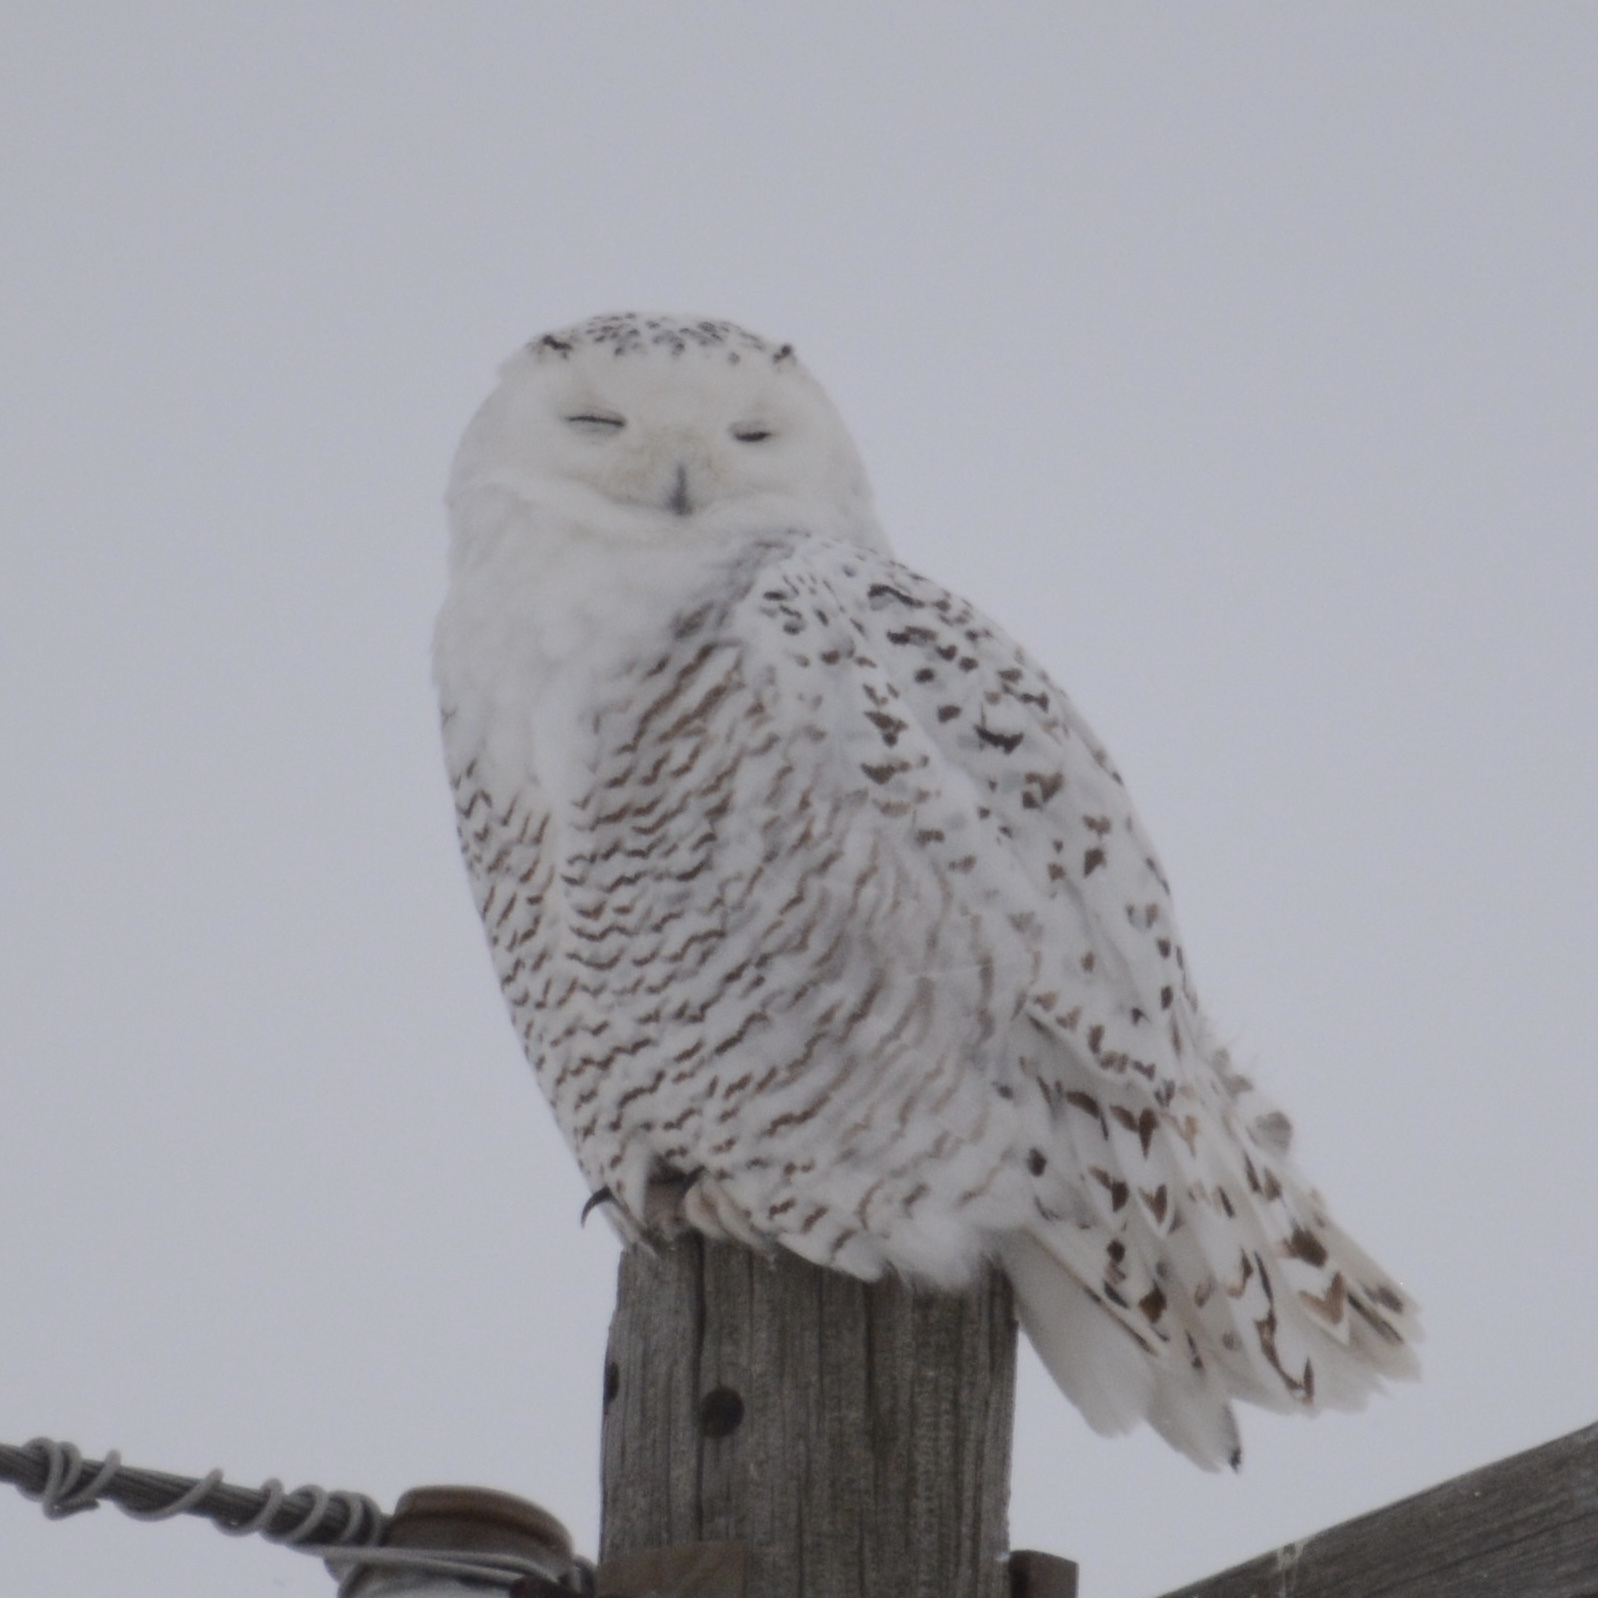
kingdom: Animalia
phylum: Chordata
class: Aves
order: Strigiformes
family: Strigidae
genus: Bubo
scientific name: Bubo scandiacus
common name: Snowy owl
